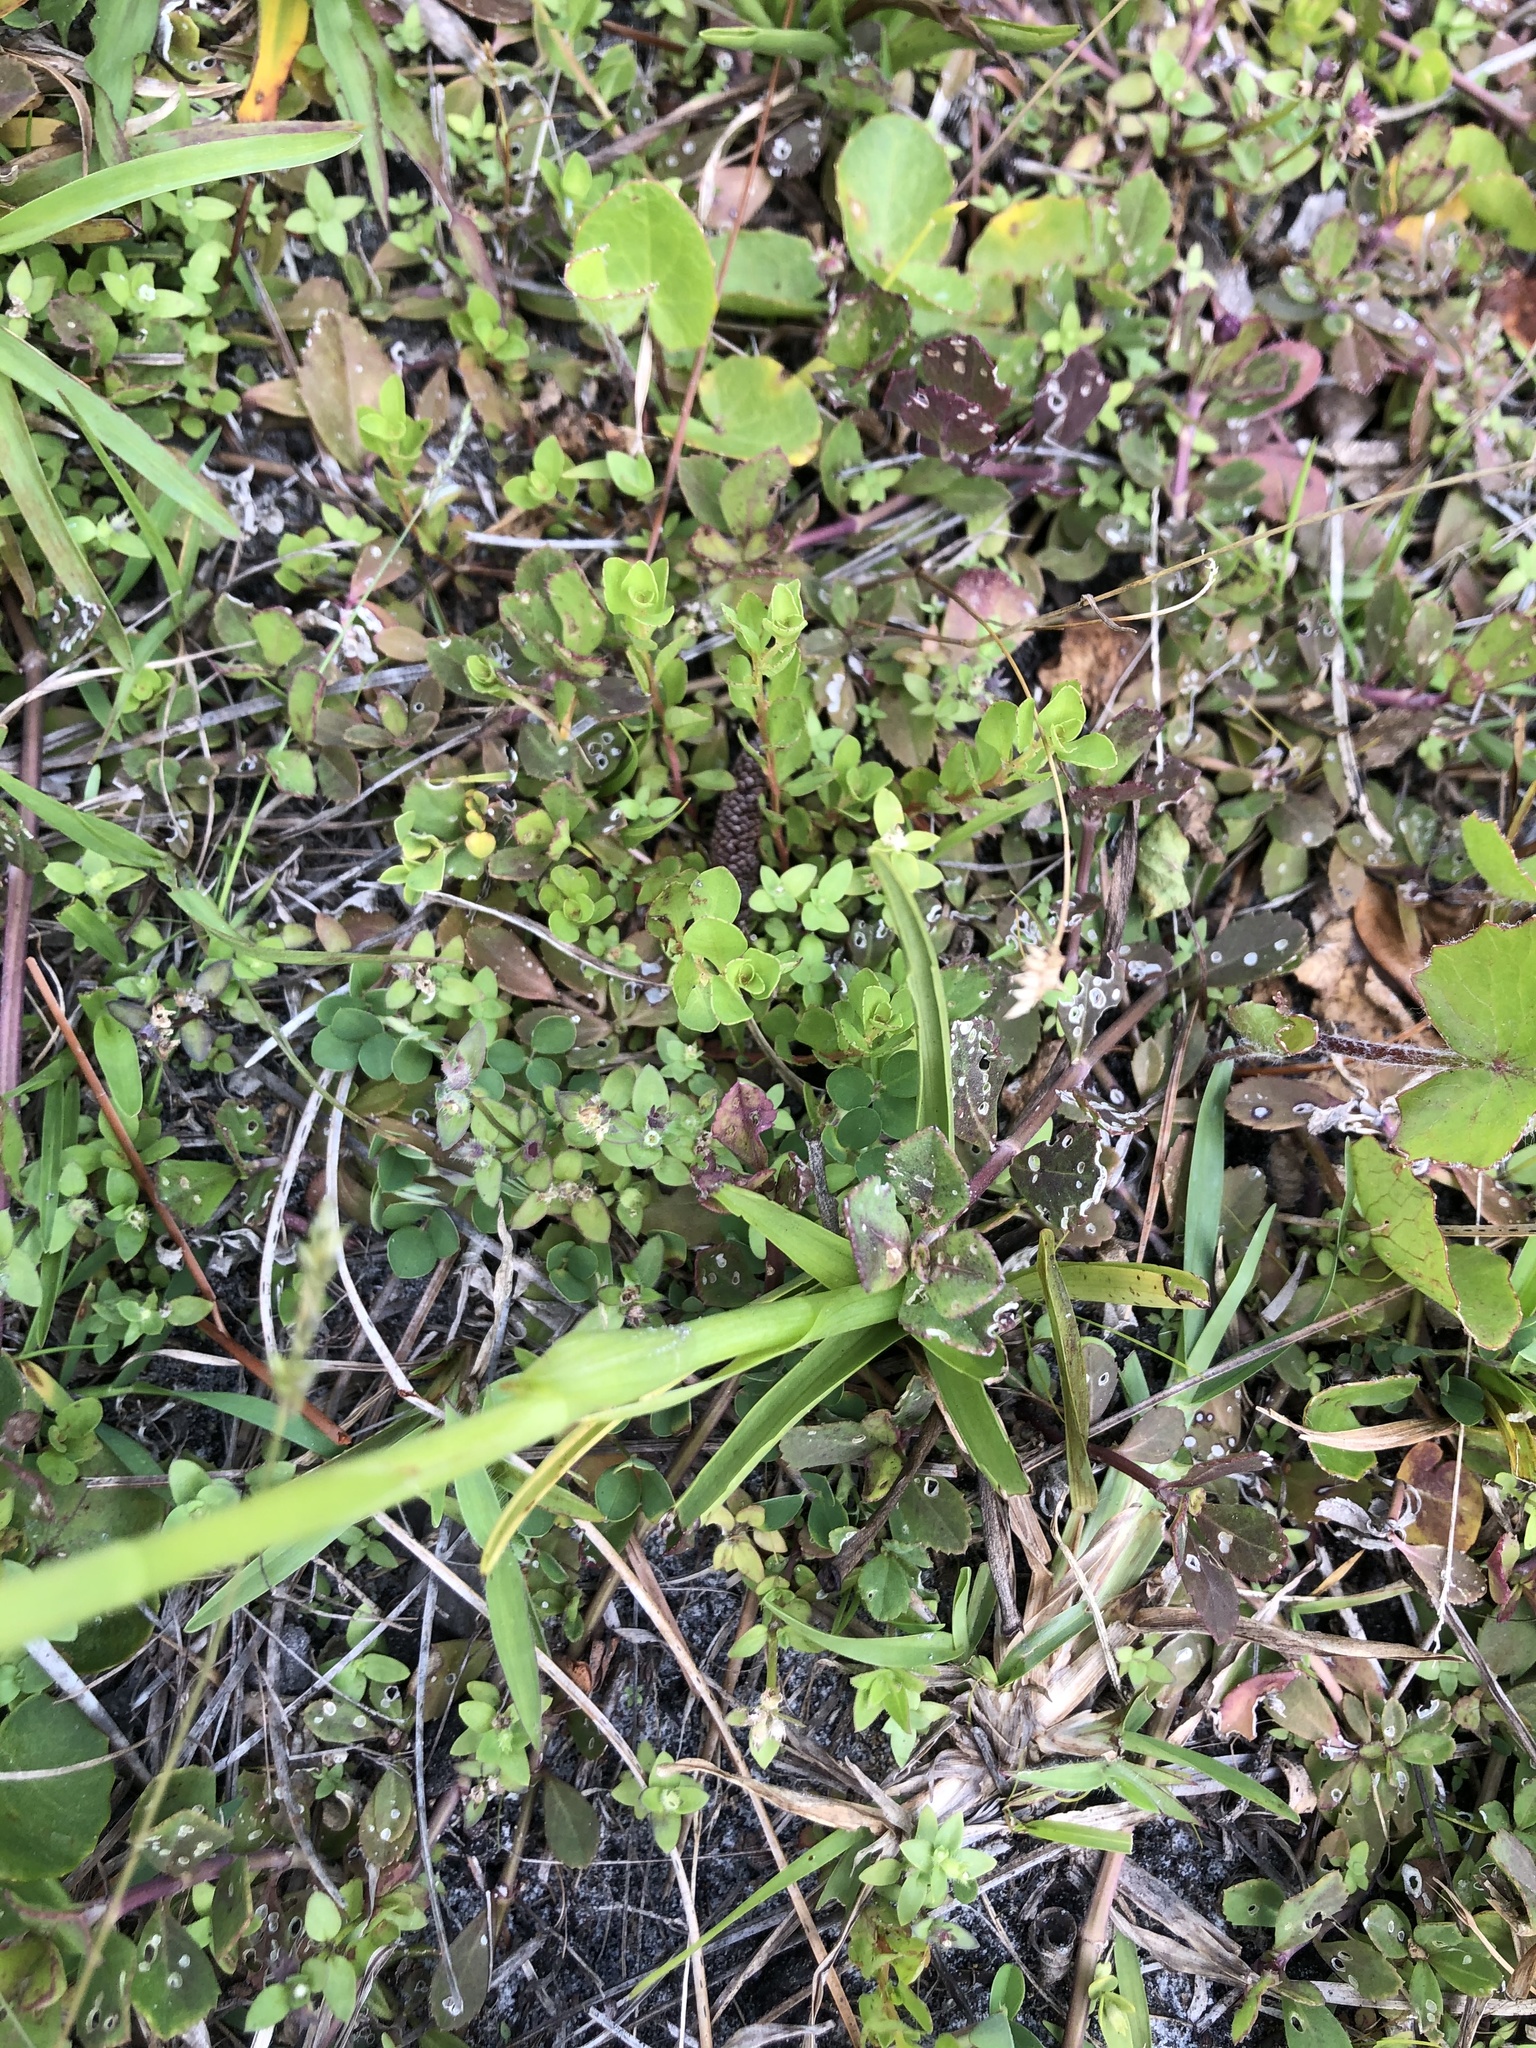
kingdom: Plantae
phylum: Tracheophyta
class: Liliopsida
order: Asparagales
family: Orchidaceae
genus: Spiranthes
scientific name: Spiranthes vernalis
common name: Spring ladies'-tresses
